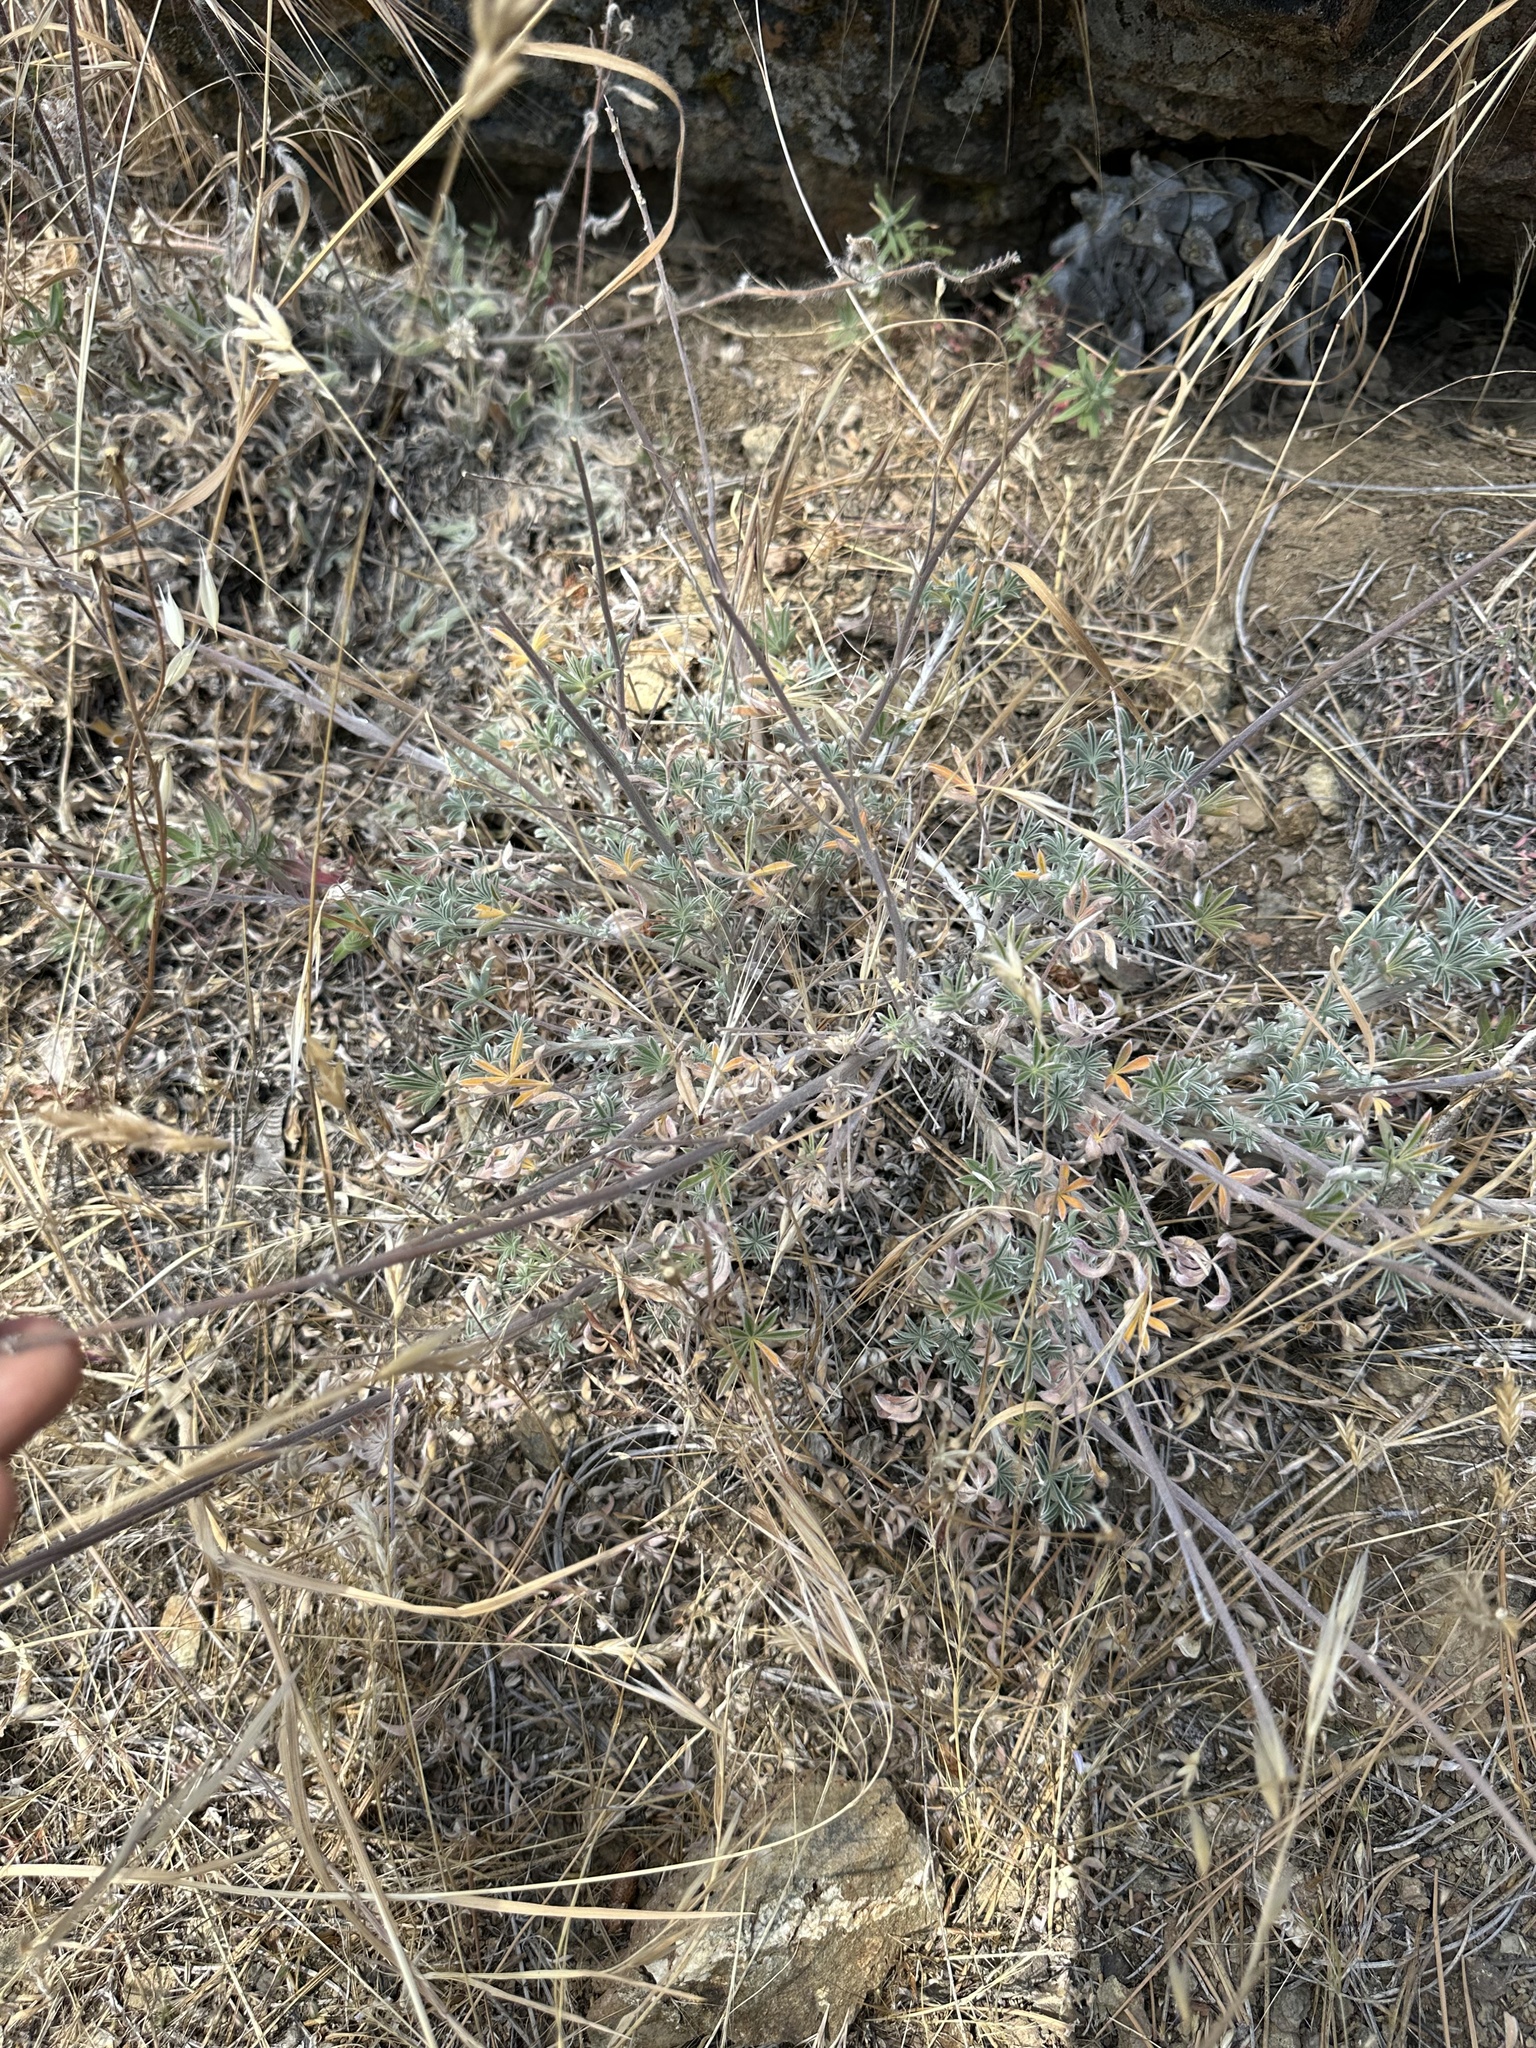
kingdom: Plantae
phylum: Tracheophyta
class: Magnoliopsida
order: Fabales
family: Fabaceae
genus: Lupinus
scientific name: Lupinus albifrons
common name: Foothill lupine
